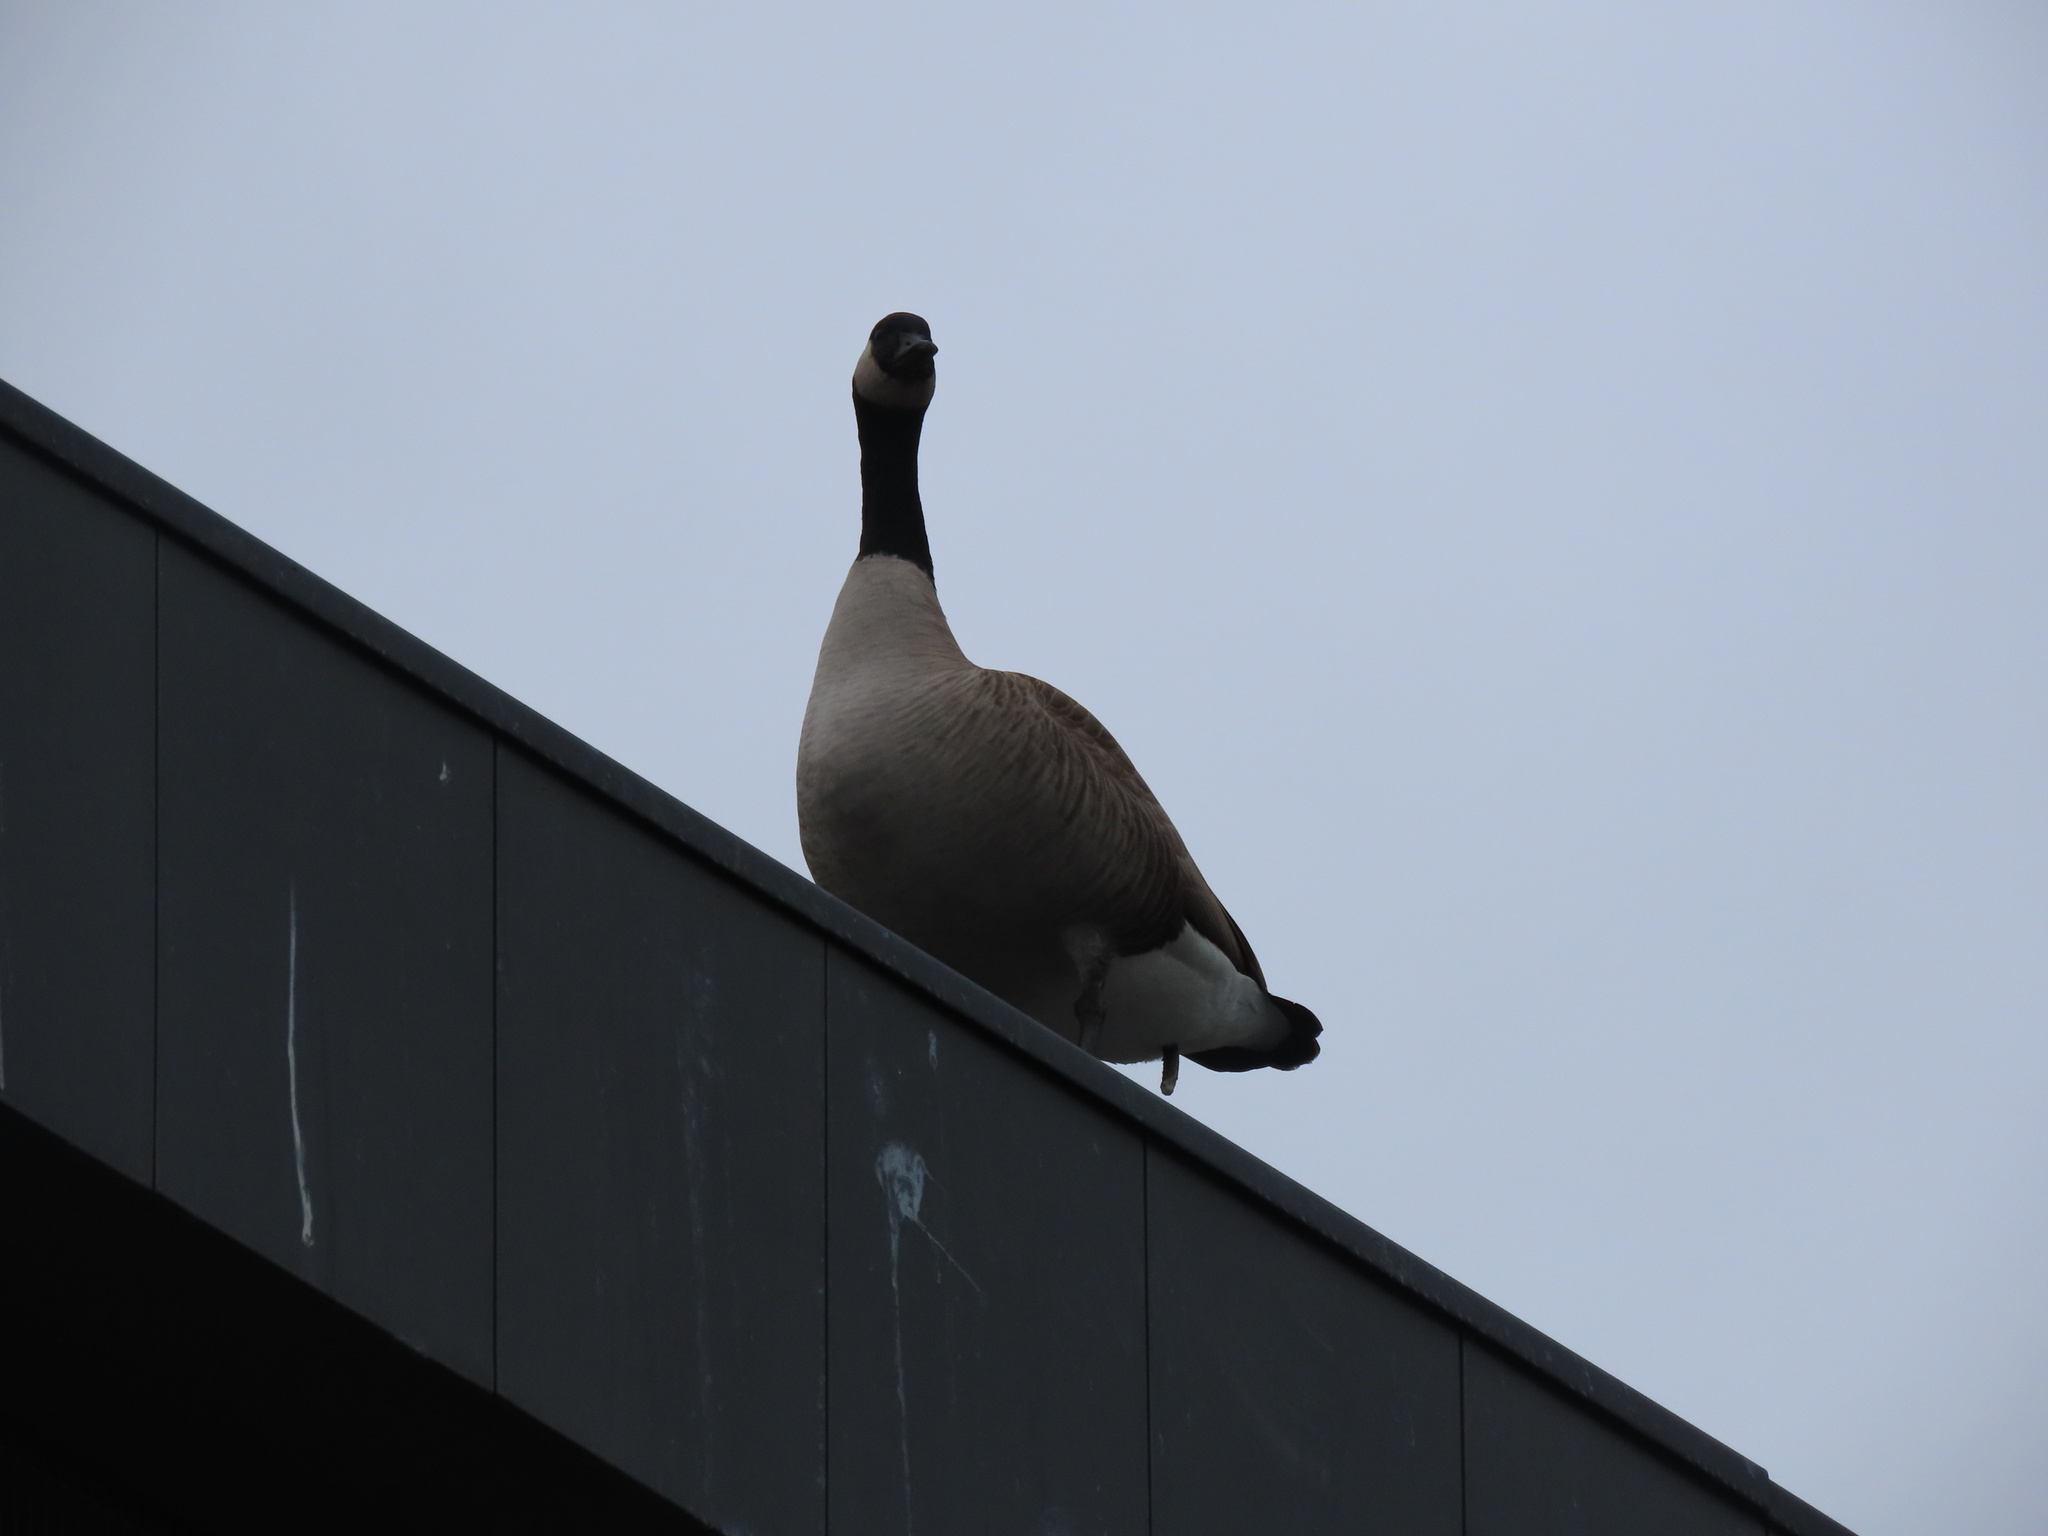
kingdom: Animalia
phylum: Chordata
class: Aves
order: Anseriformes
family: Anatidae
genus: Branta
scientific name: Branta canadensis
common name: Canada goose
